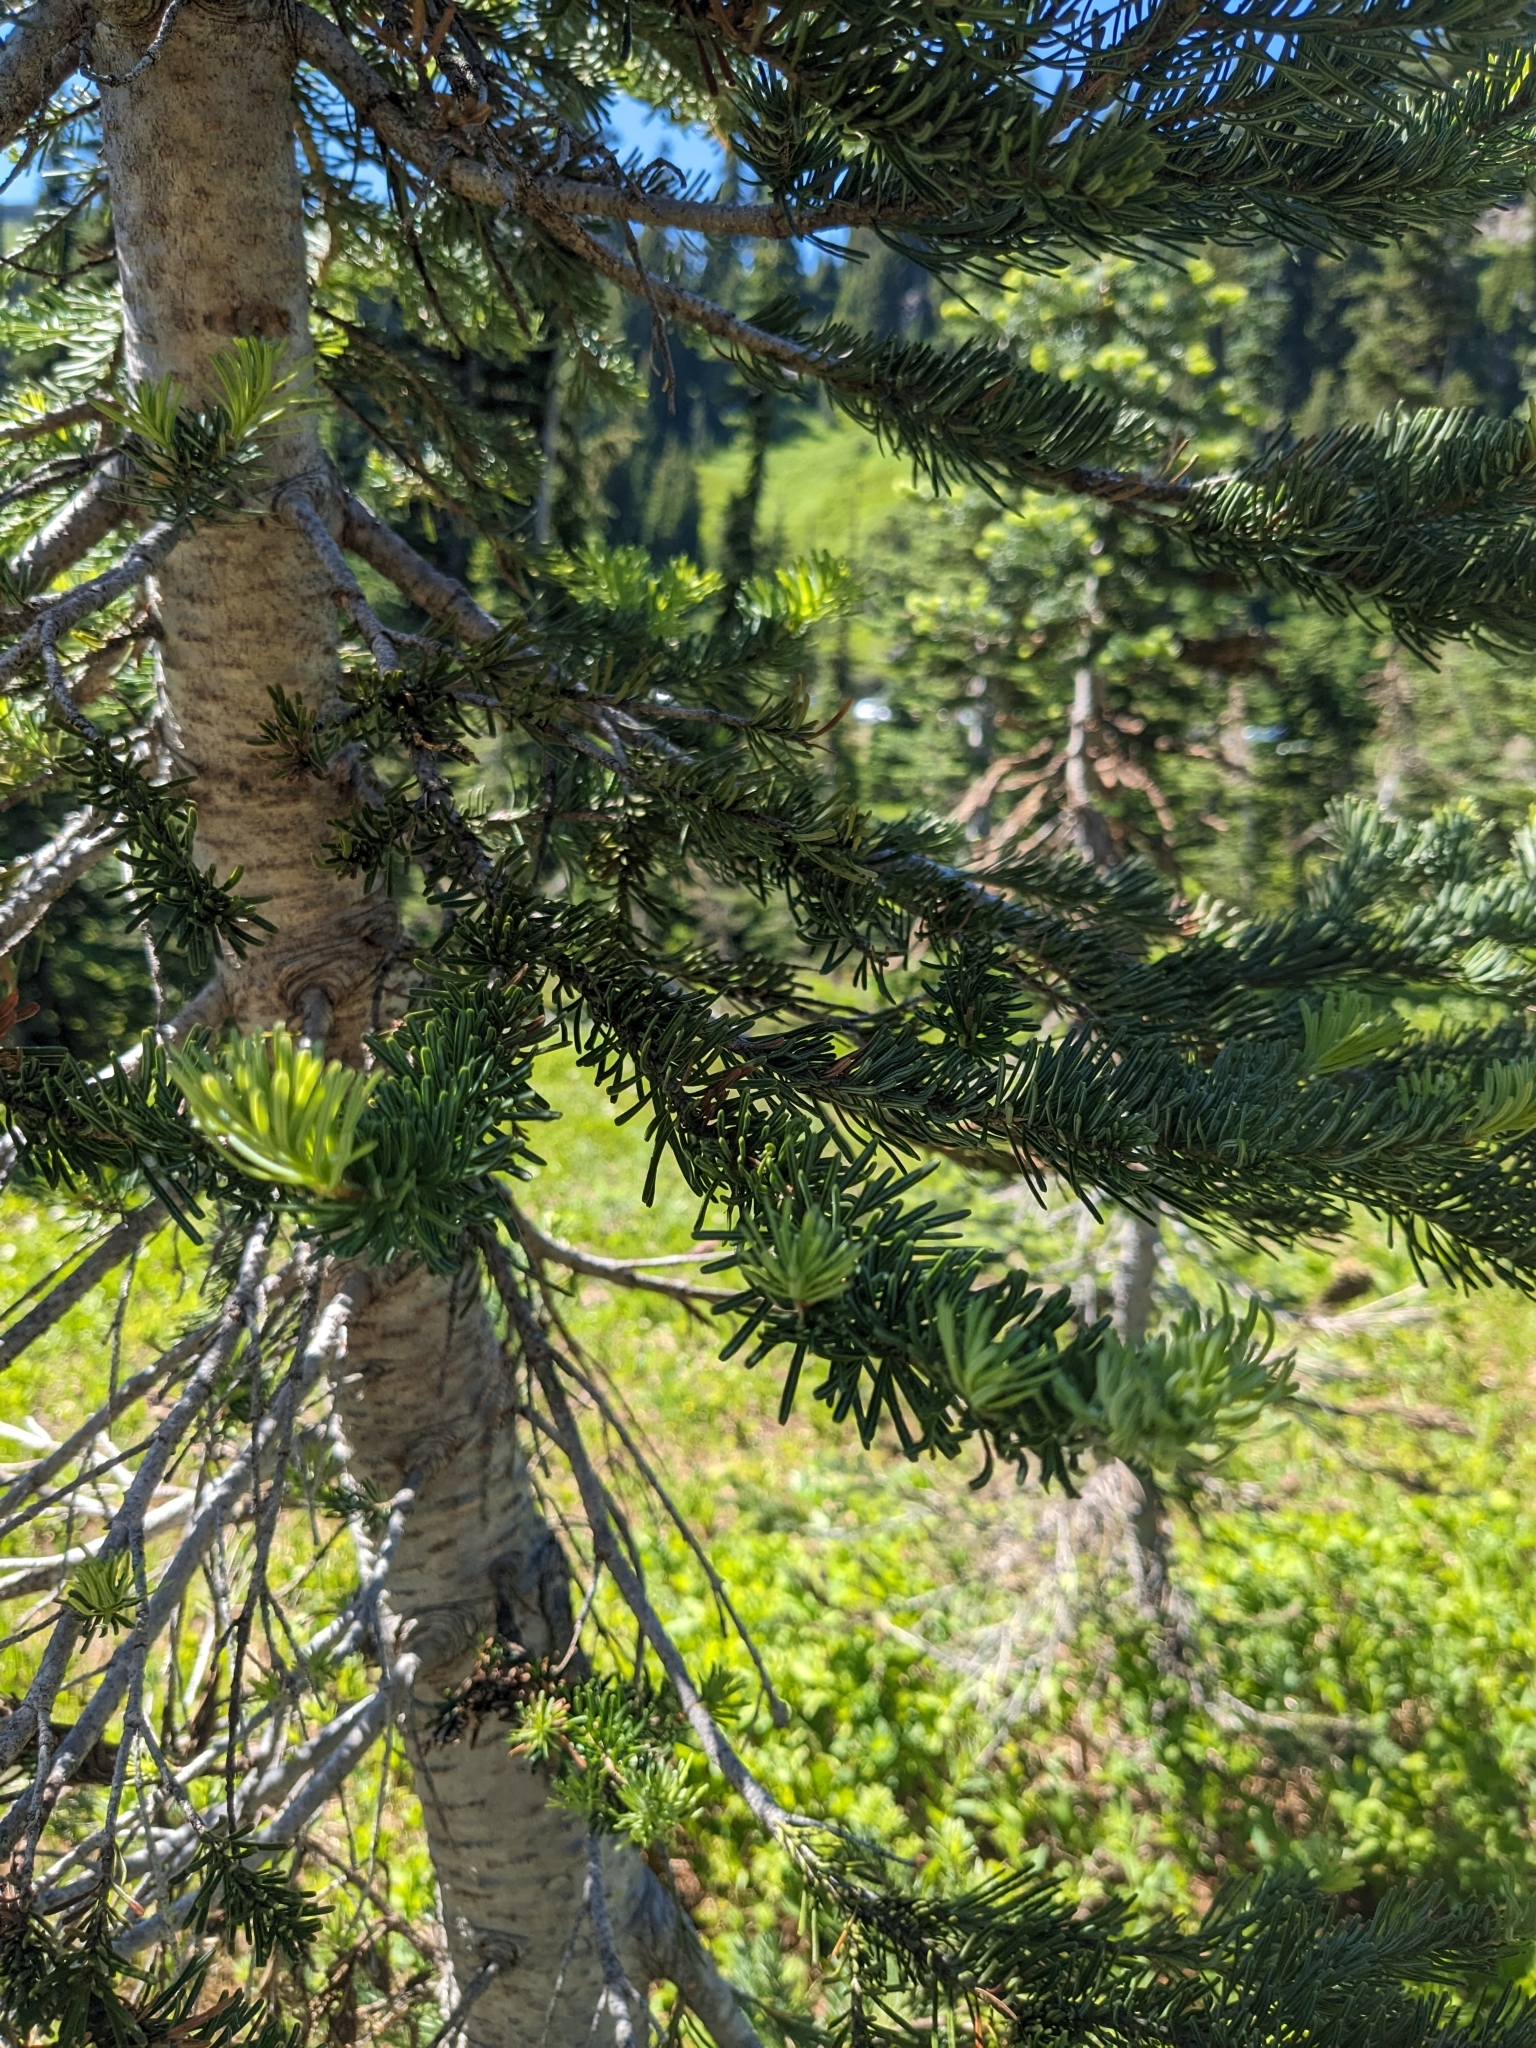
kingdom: Plantae
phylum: Tracheophyta
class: Pinopsida
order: Pinales
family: Pinaceae
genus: Abies
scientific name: Abies lasiocarpa
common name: Subalpine fir
